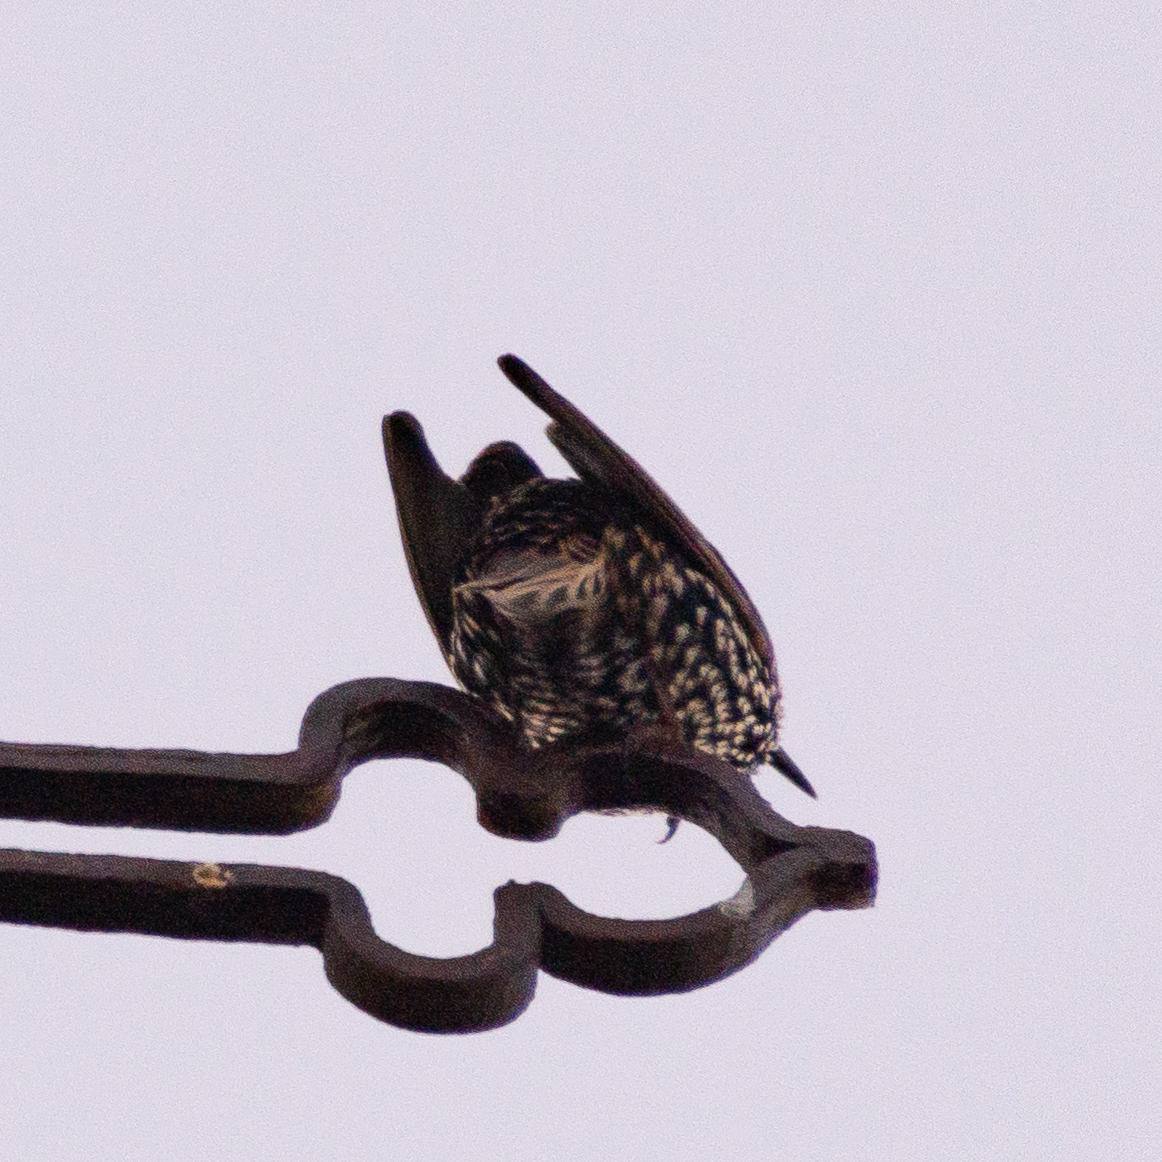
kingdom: Animalia
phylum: Chordata
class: Aves
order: Passeriformes
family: Sturnidae
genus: Sturnus
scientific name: Sturnus vulgaris
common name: Common starling
